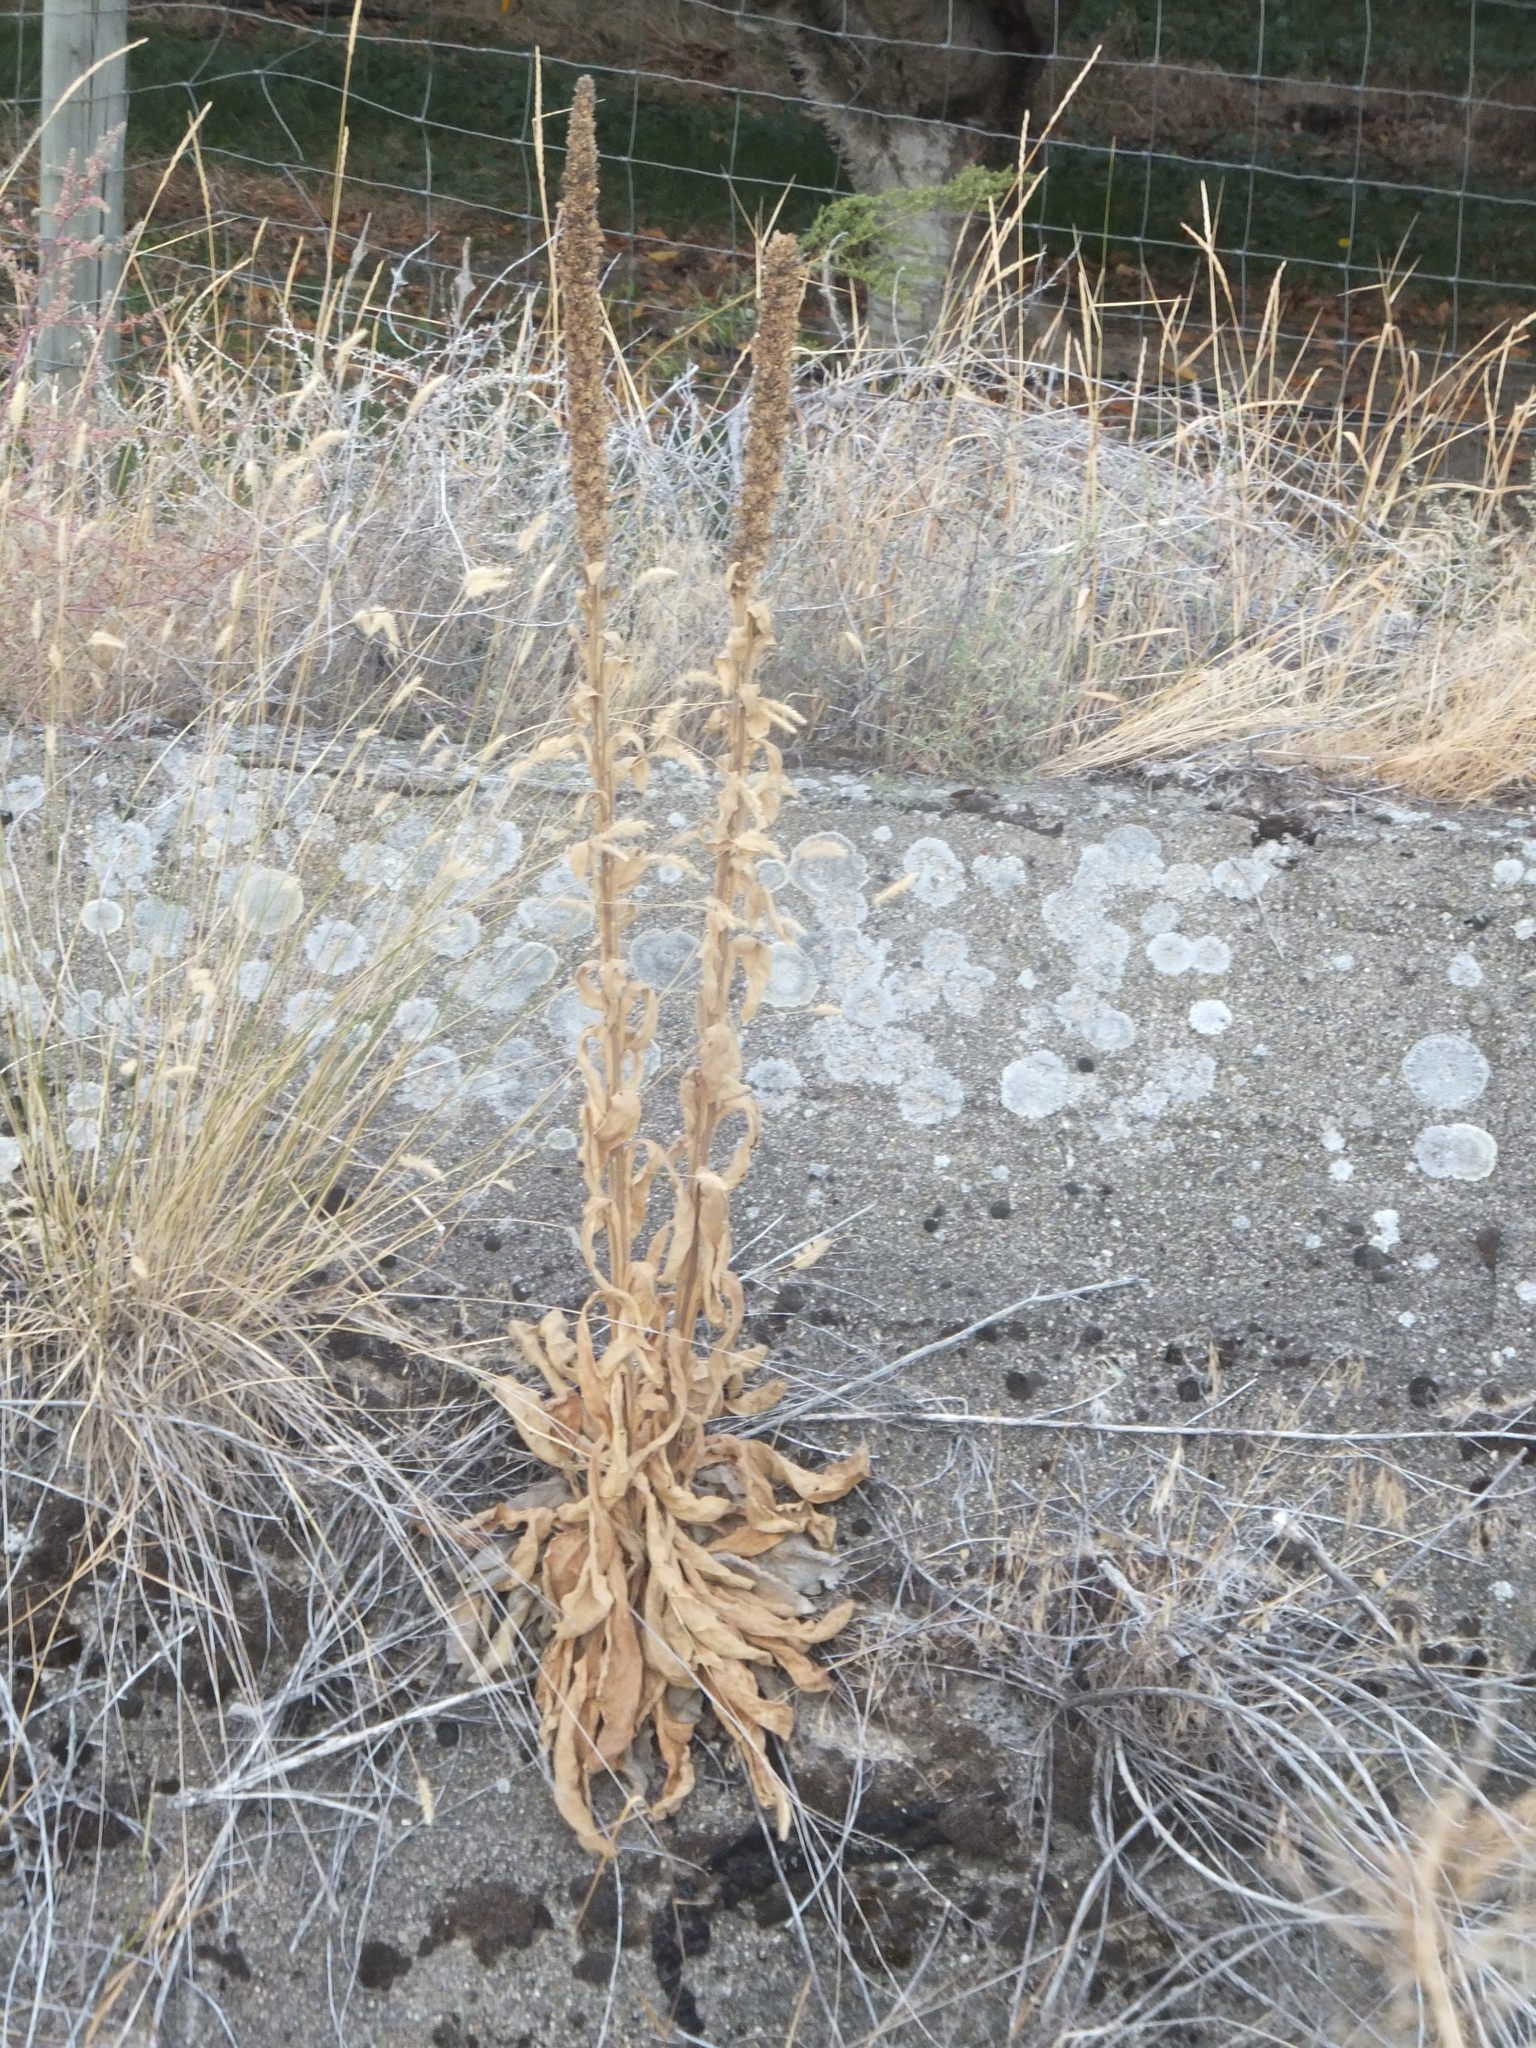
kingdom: Plantae
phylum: Tracheophyta
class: Magnoliopsida
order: Lamiales
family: Scrophulariaceae
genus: Verbascum
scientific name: Verbascum thapsus
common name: Common mullein
